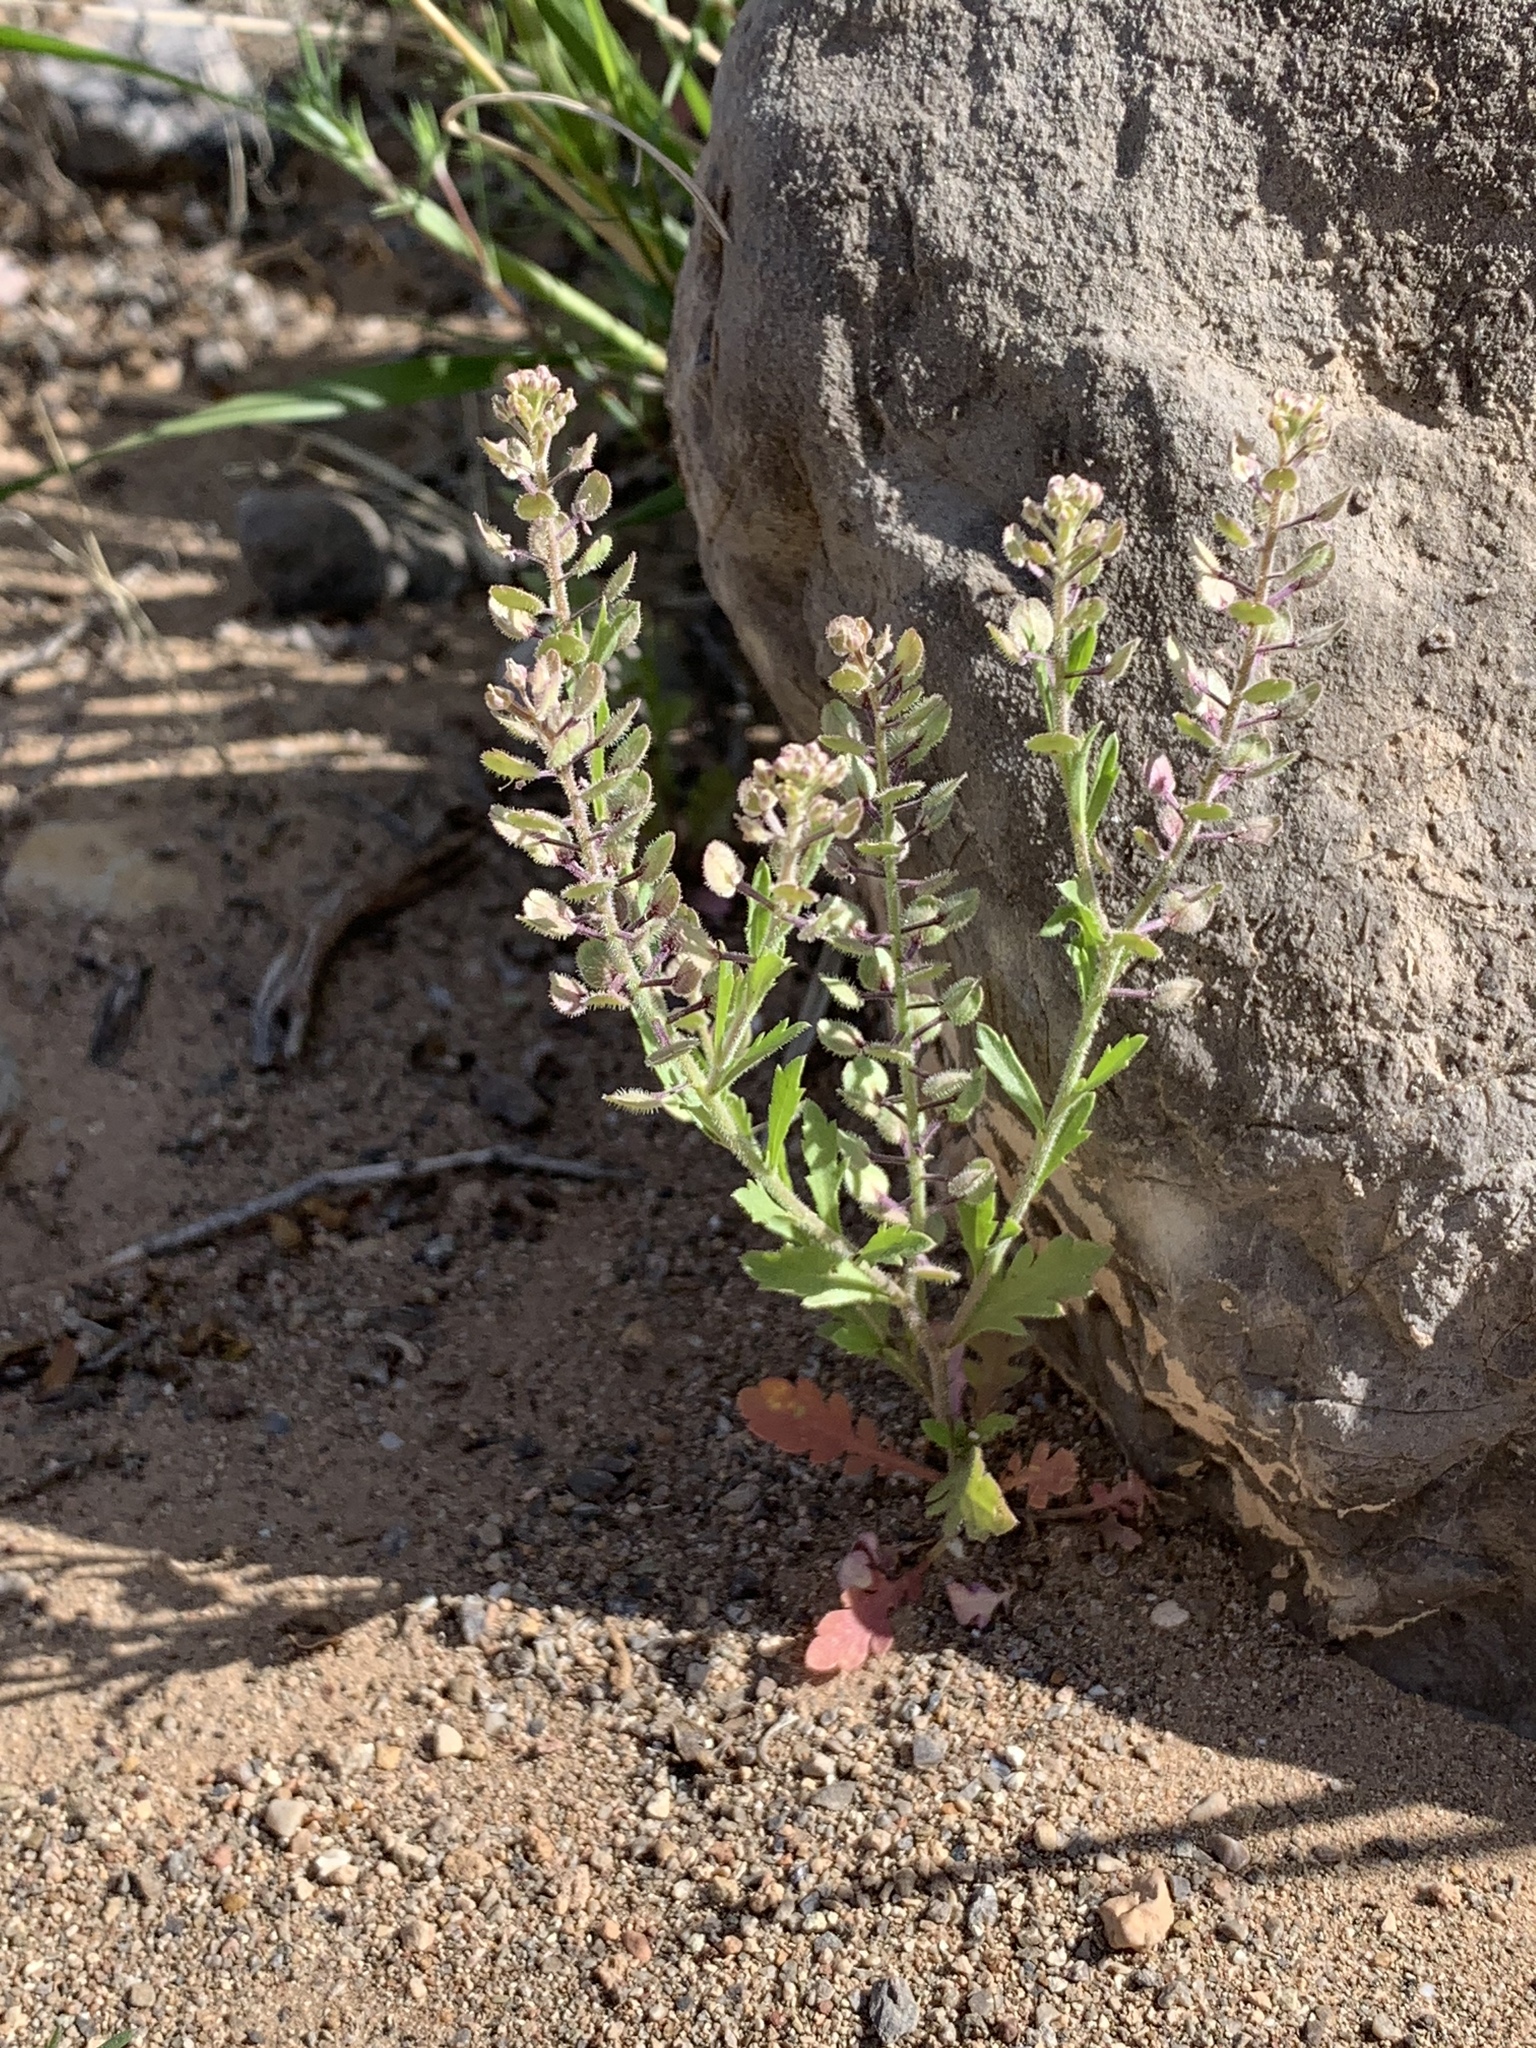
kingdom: Plantae
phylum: Tracheophyta
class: Magnoliopsida
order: Brassicales
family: Brassicaceae
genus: Lepidium
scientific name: Lepidium lasiocarpum
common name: Hairy-pod pepperwort
